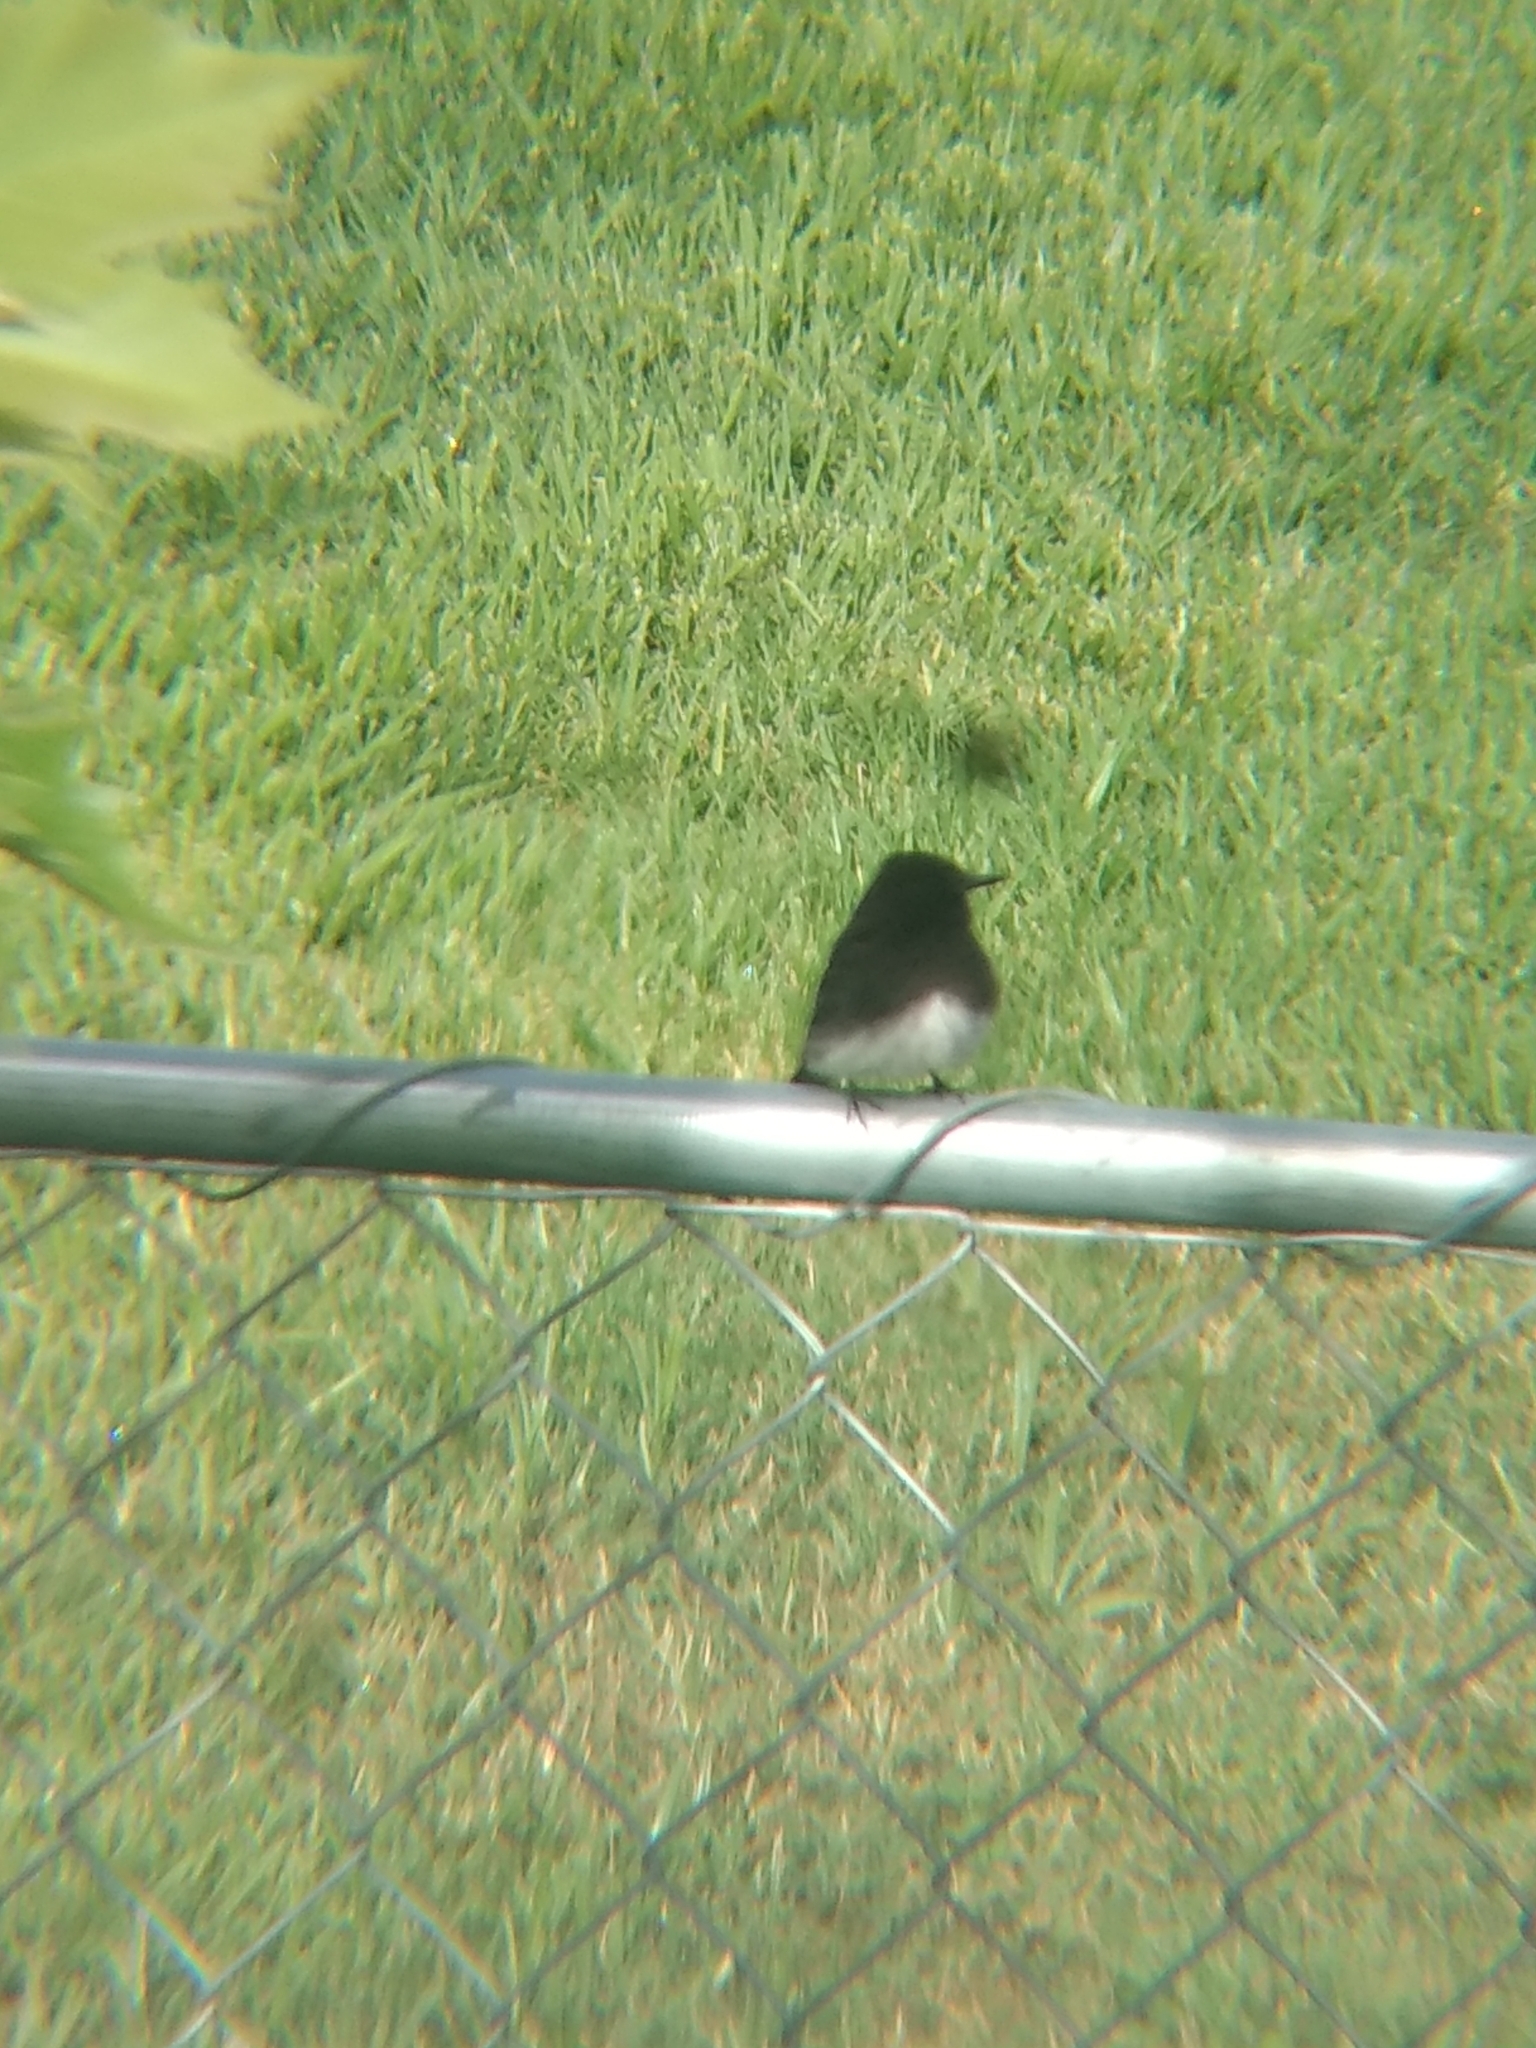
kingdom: Animalia
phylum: Chordata
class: Aves
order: Passeriformes
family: Tyrannidae
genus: Sayornis
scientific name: Sayornis nigricans
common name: Black phoebe
